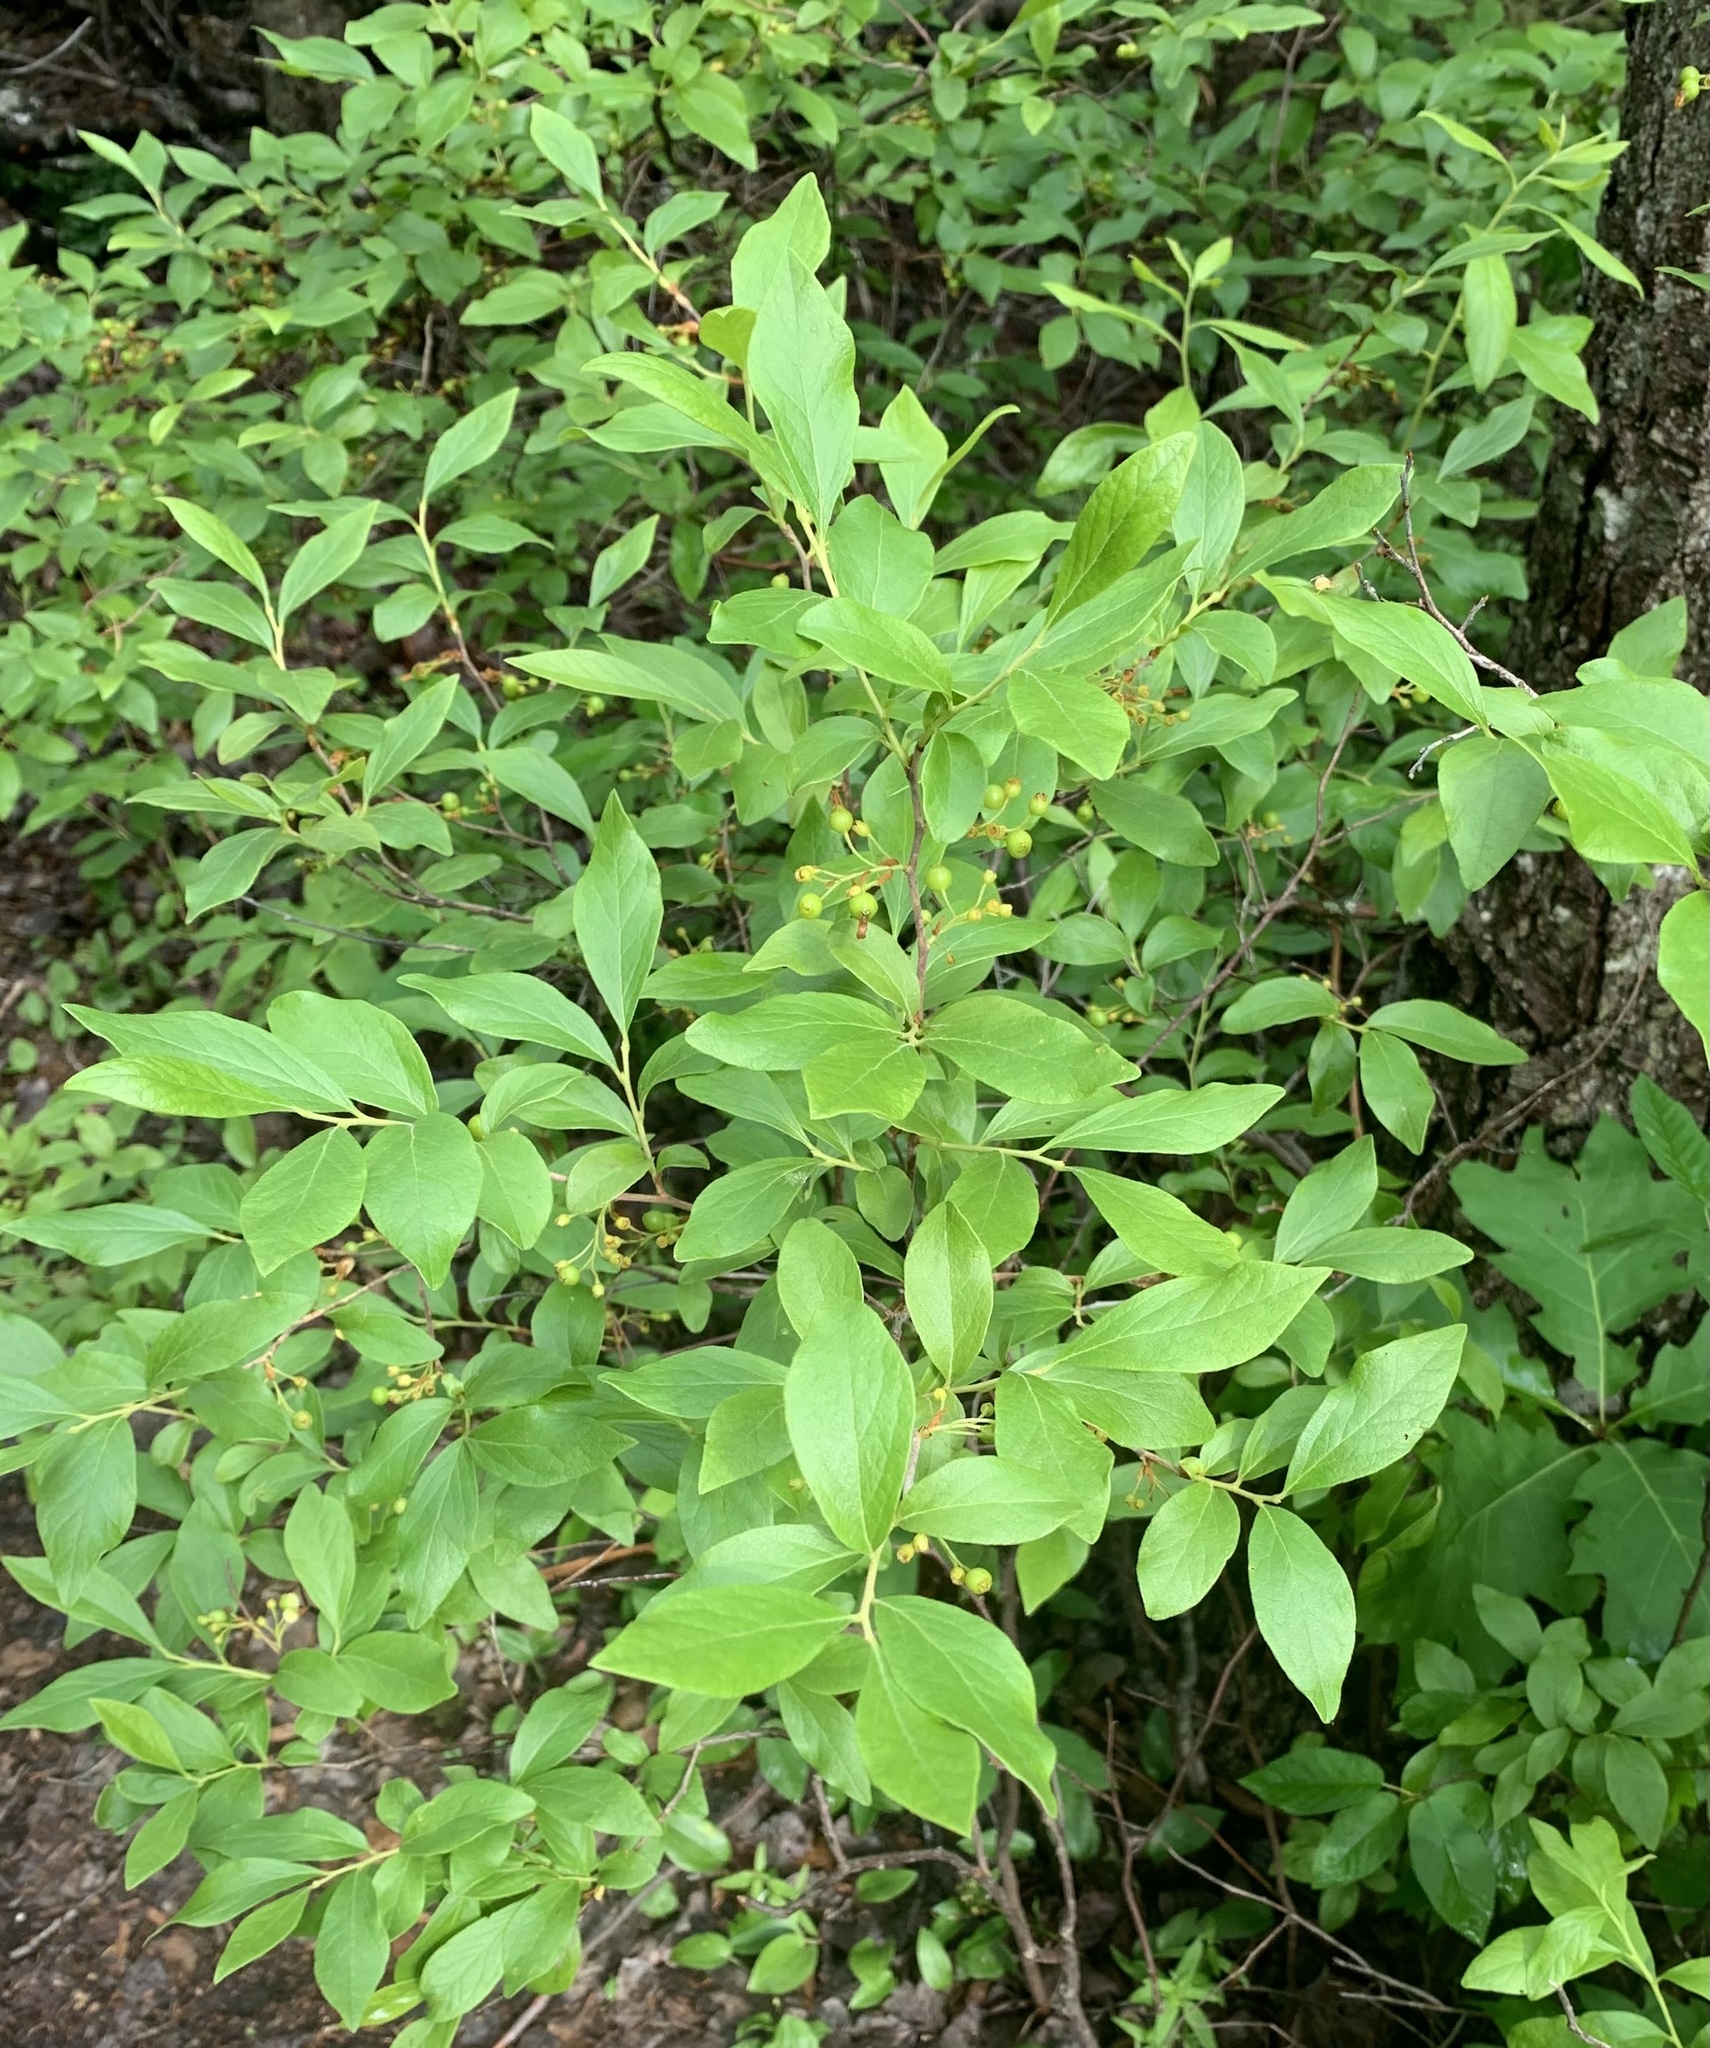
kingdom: Plantae
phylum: Tracheophyta
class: Magnoliopsida
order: Ericales
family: Ericaceae
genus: Gaylussacia
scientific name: Gaylussacia baccata
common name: Black huckleberry
